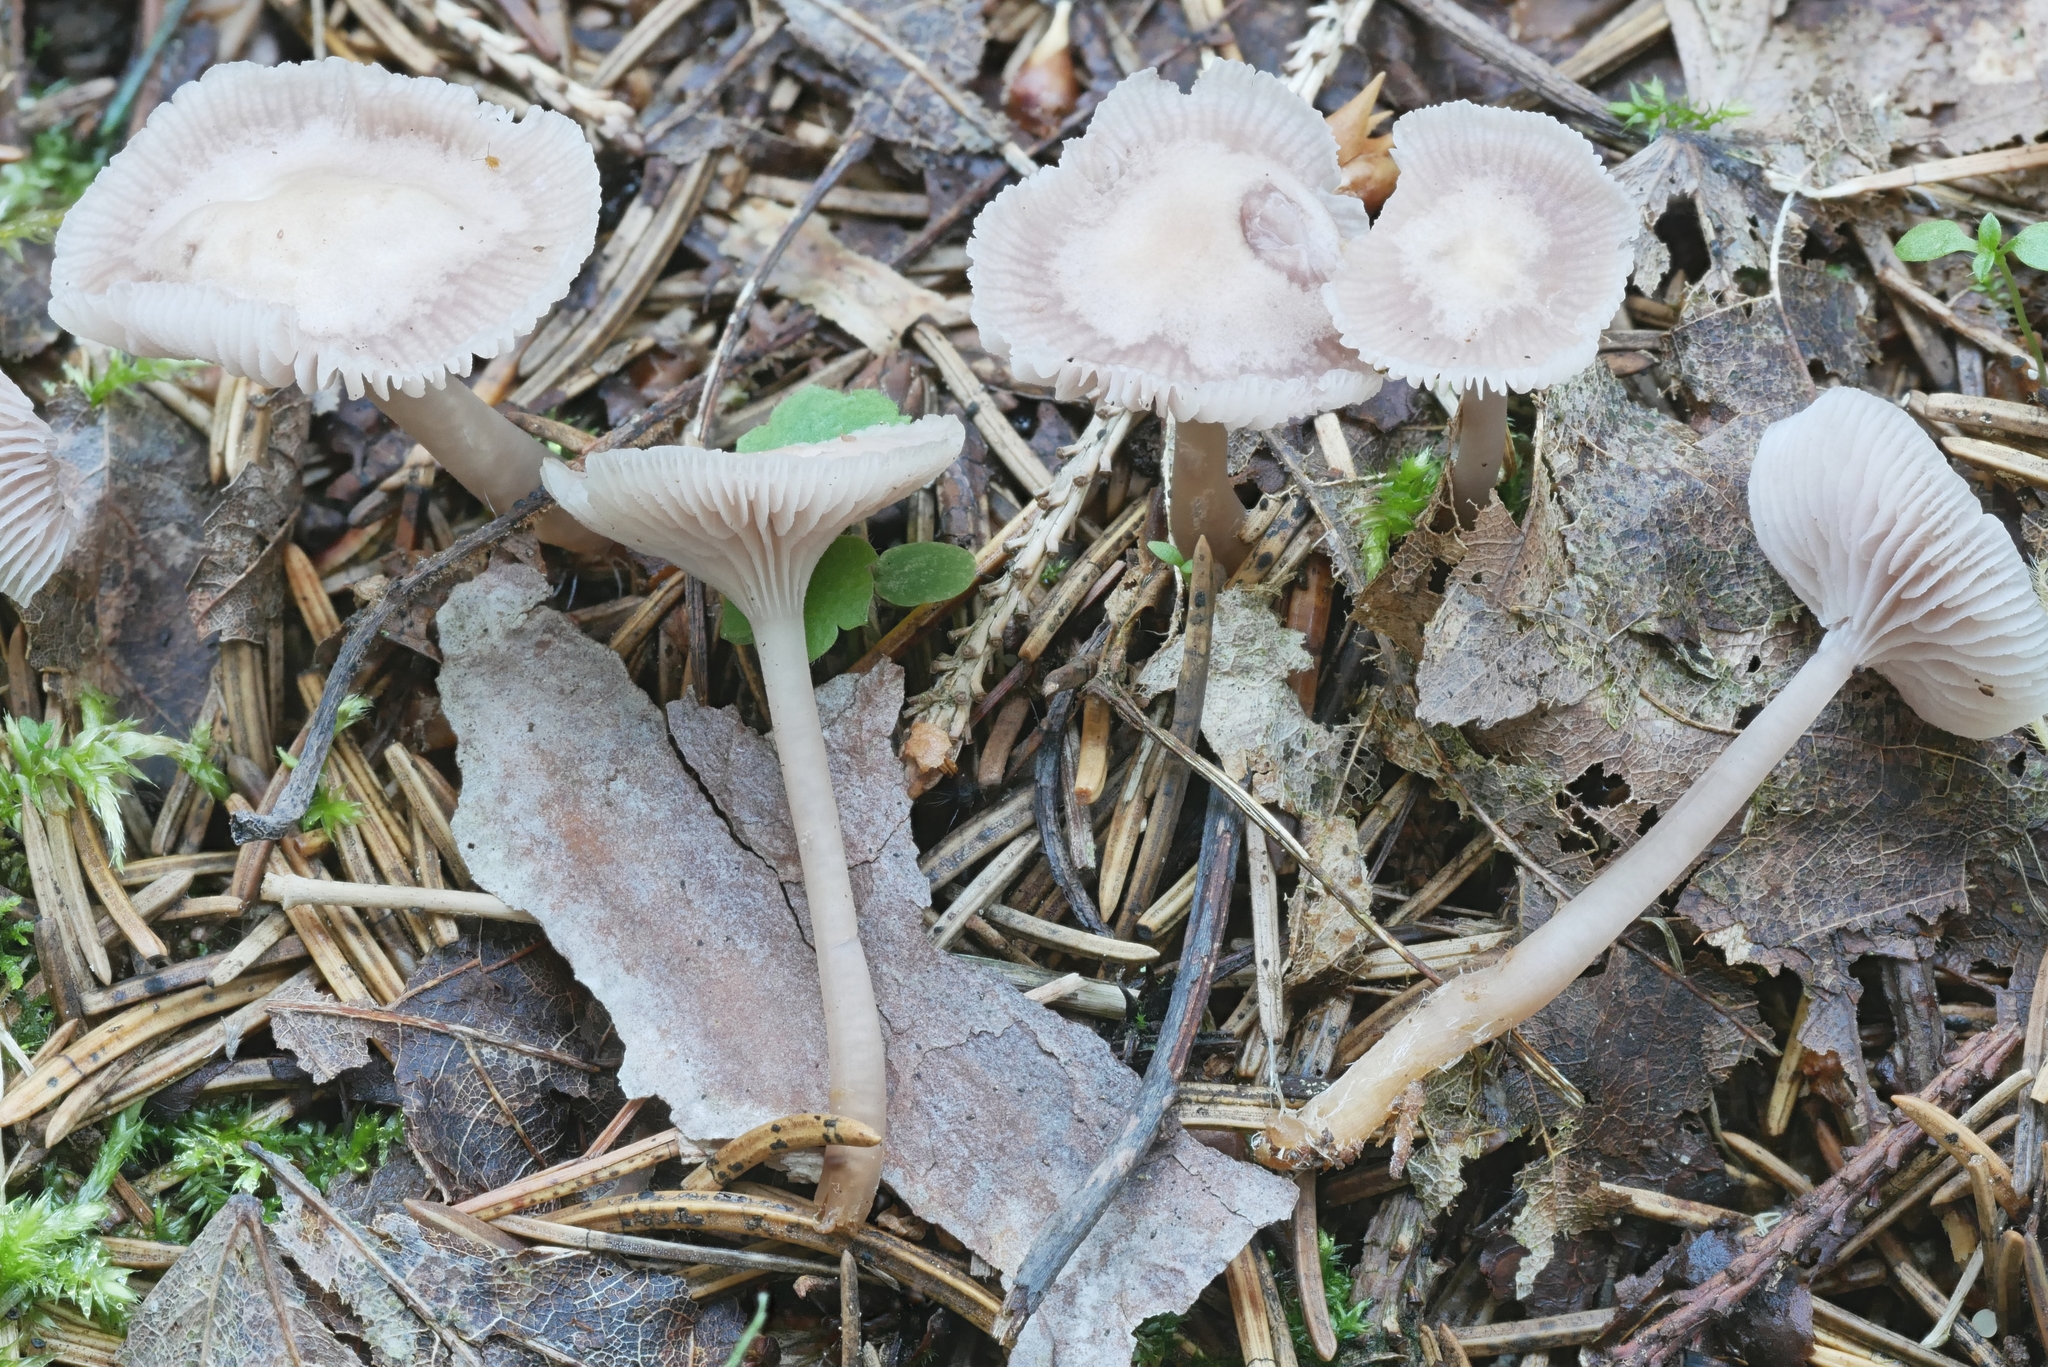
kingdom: Fungi
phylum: Basidiomycota
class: Agaricomycetes
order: Agaricales
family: Mycenaceae
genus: Mycena
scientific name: Mycena pearsoniana
